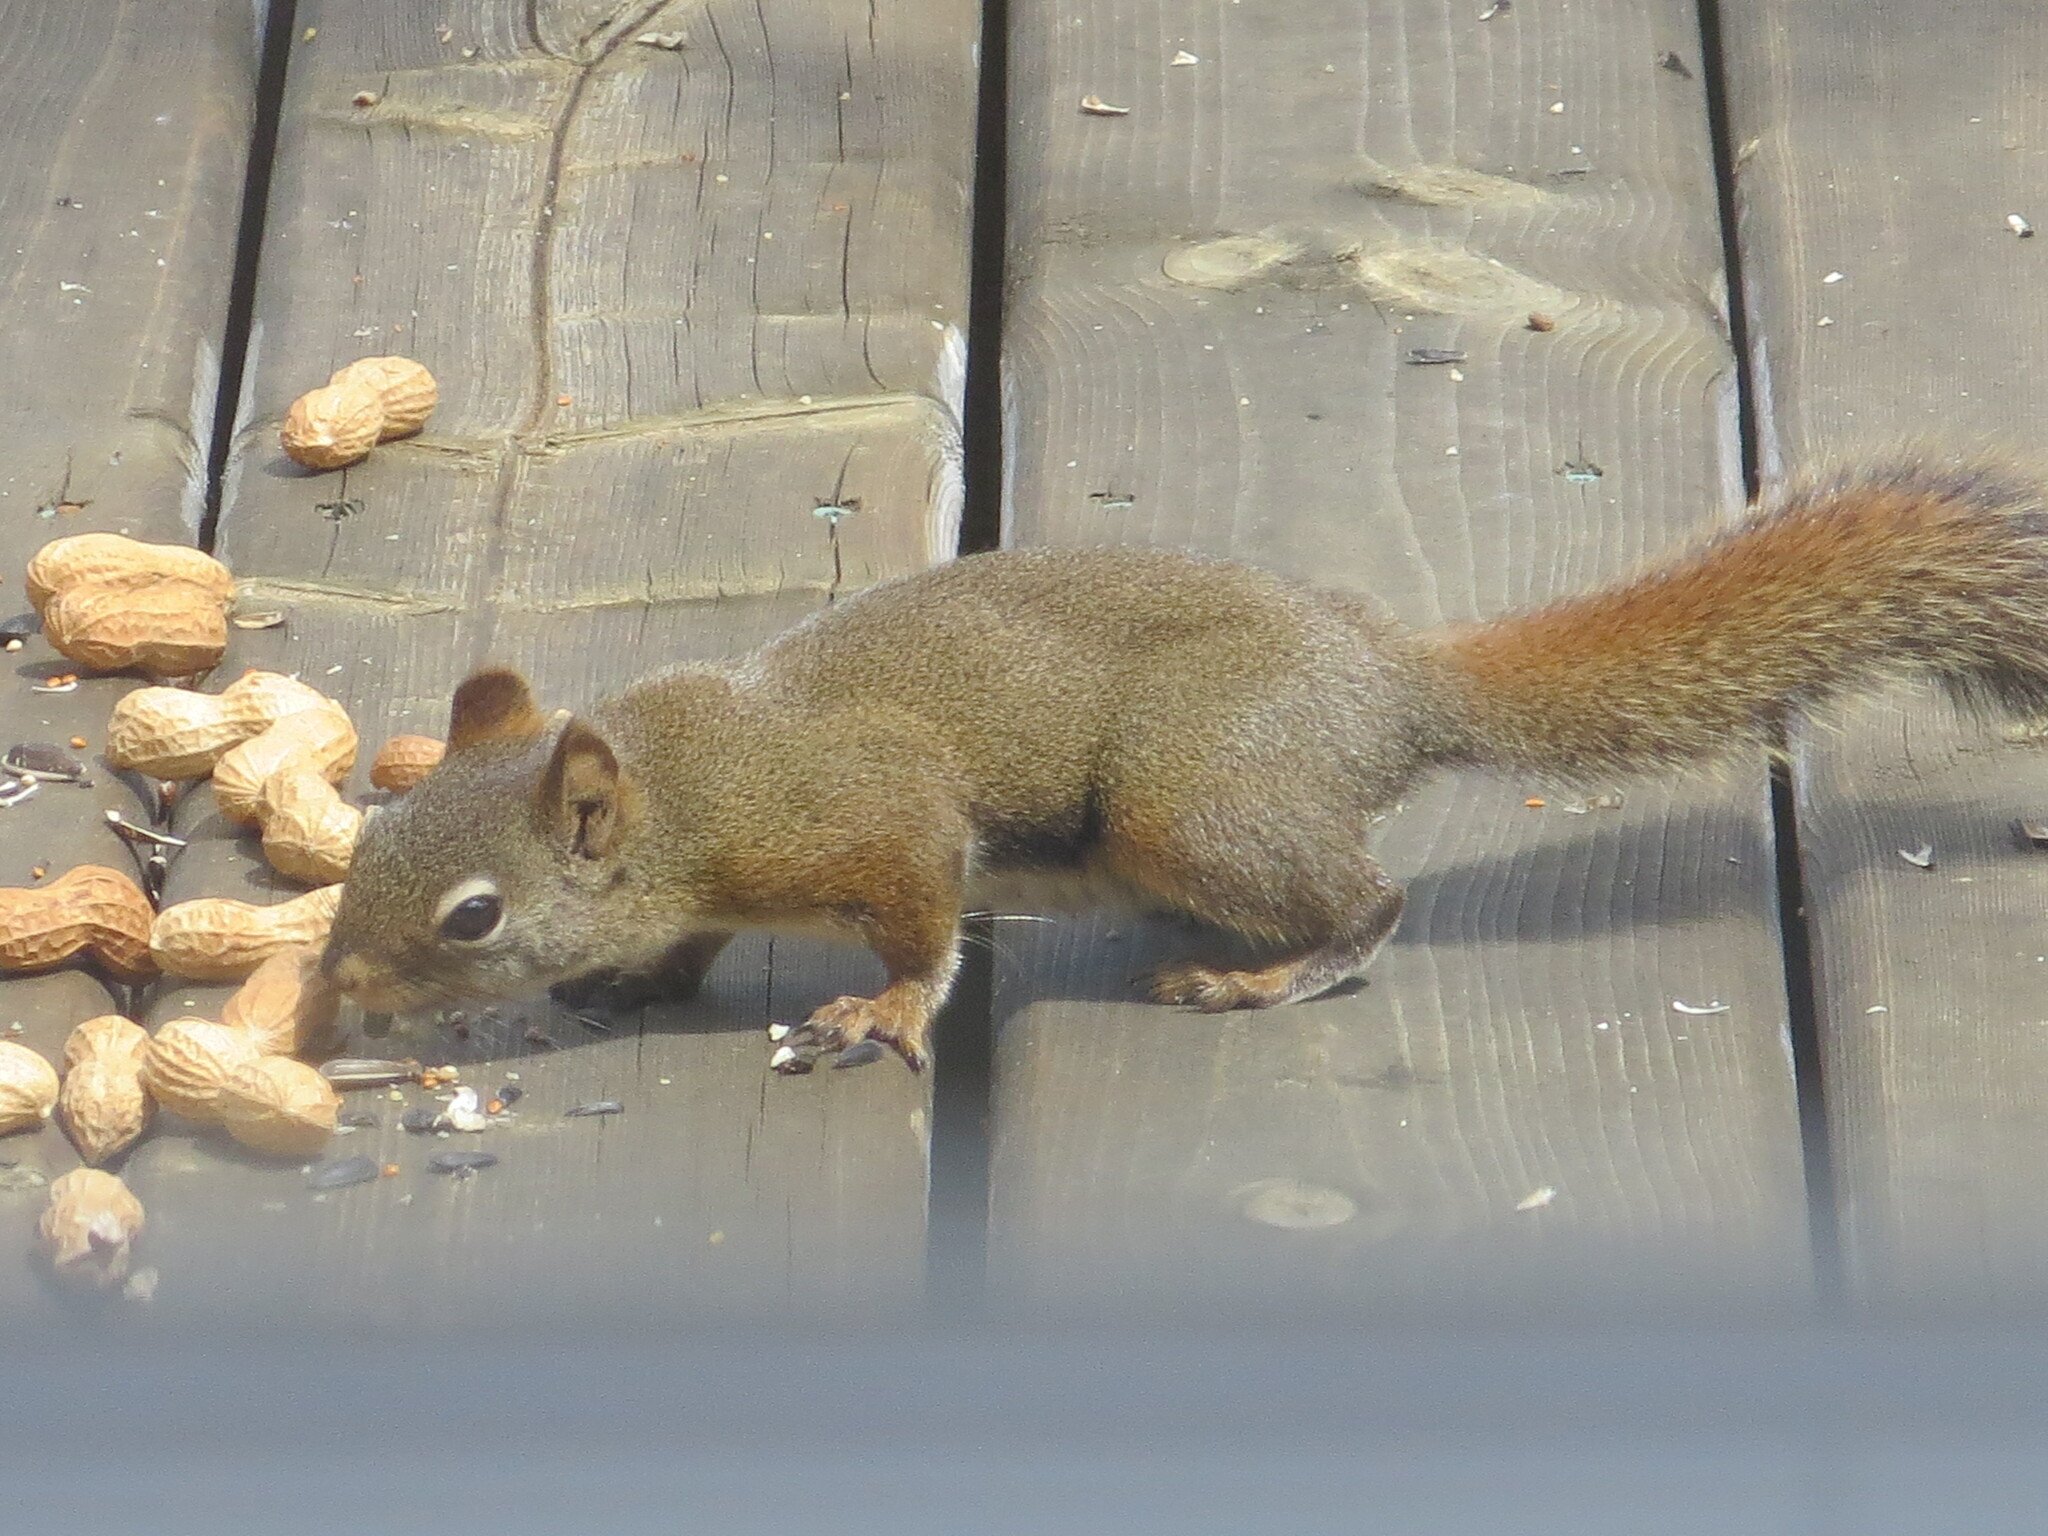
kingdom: Animalia
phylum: Chordata
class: Mammalia
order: Rodentia
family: Sciuridae
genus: Tamiasciurus
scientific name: Tamiasciurus hudsonicus
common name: Red squirrel
